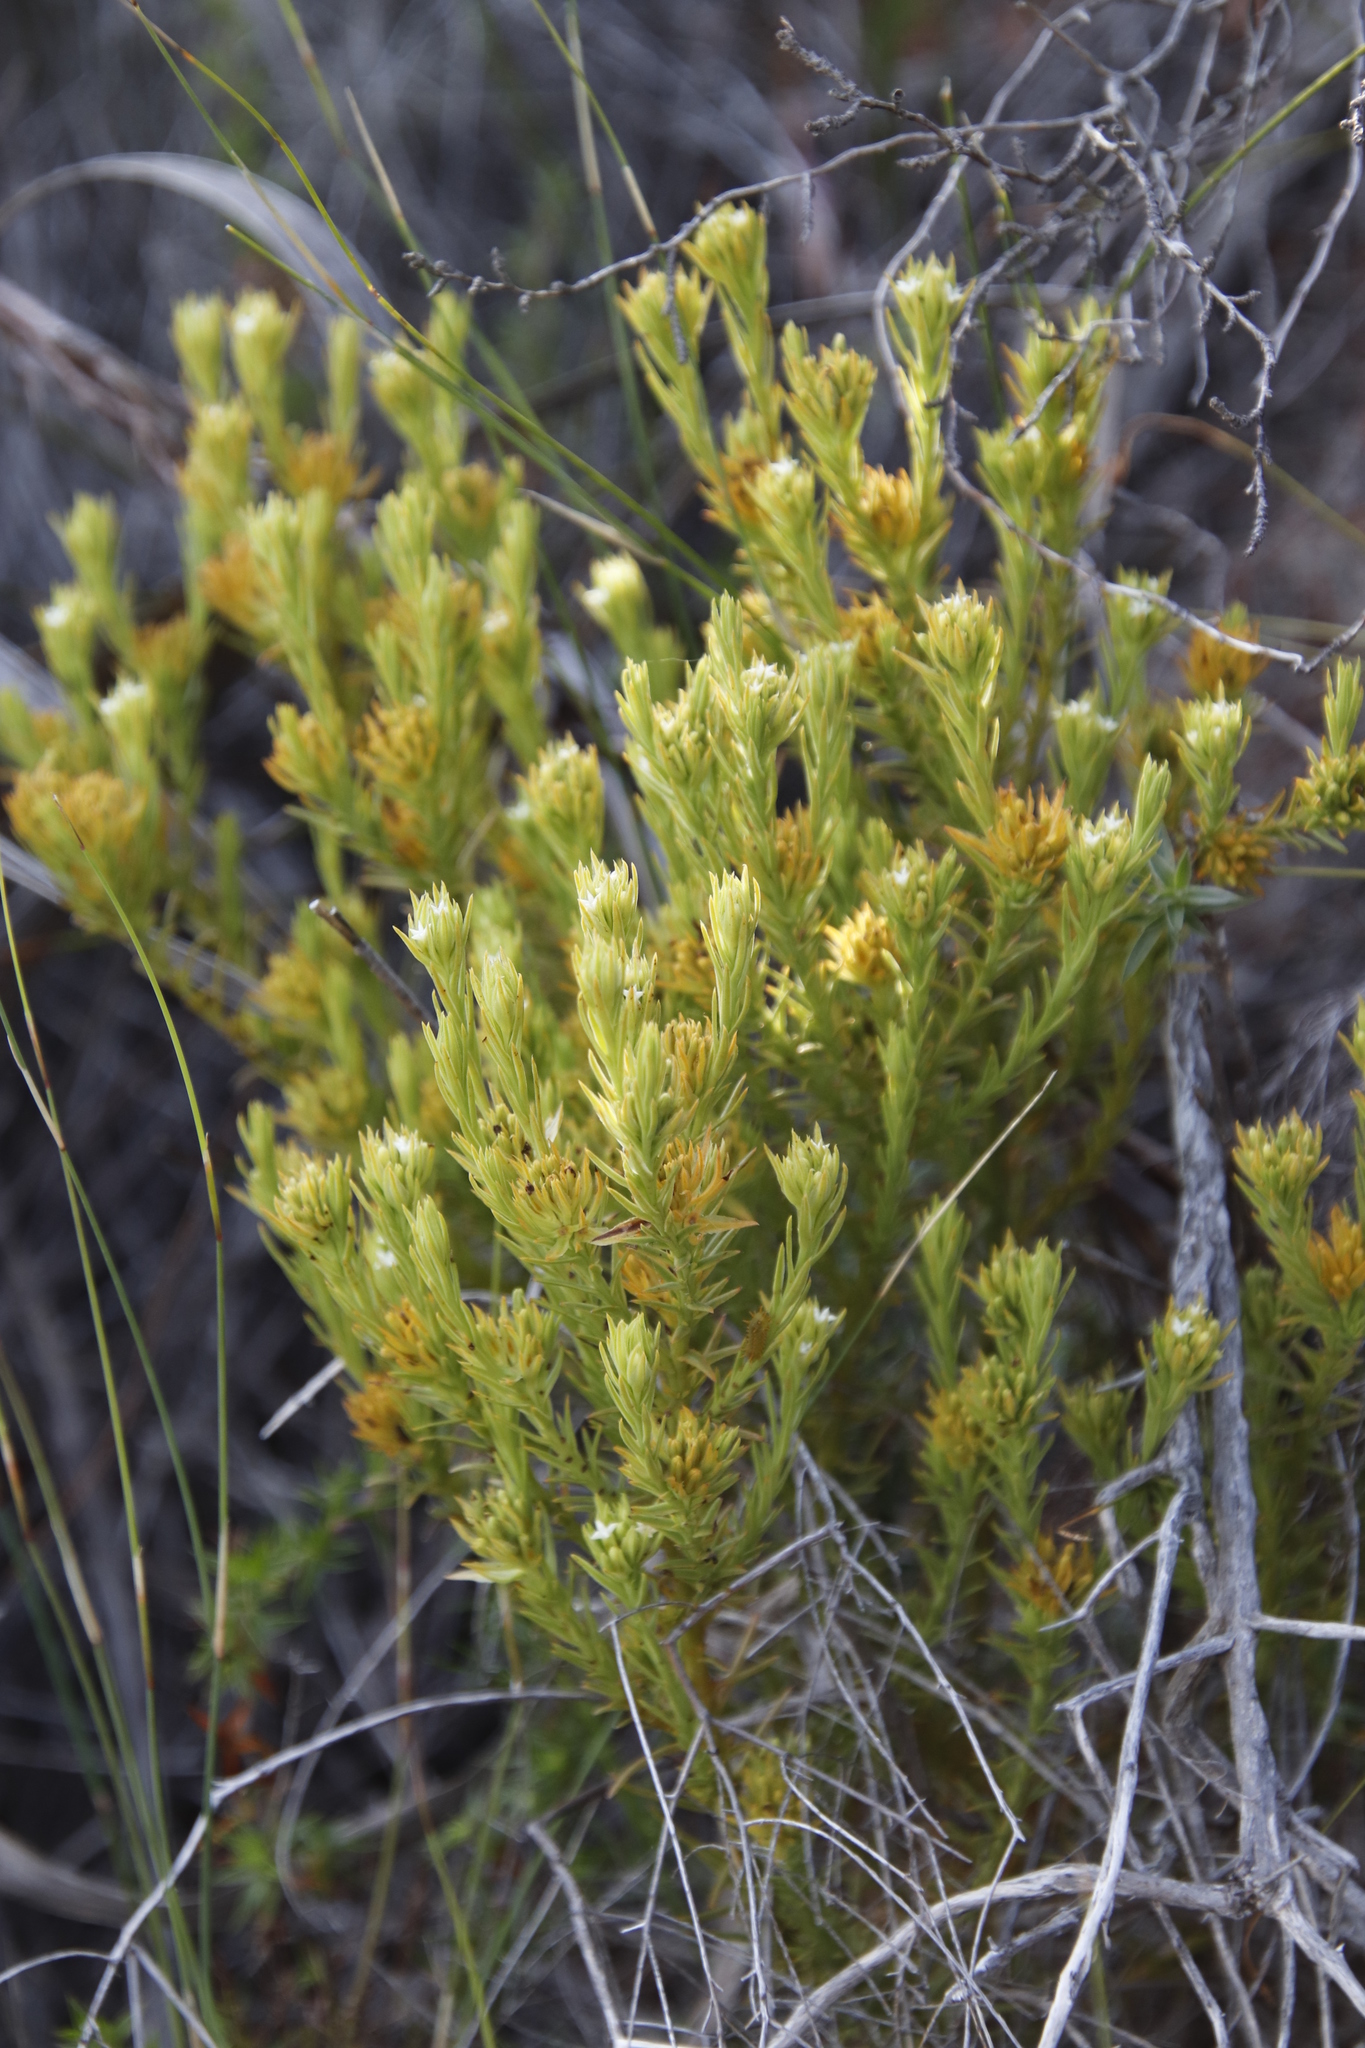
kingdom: Plantae
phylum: Tracheophyta
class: Magnoliopsida
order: Santalales
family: Thesiaceae
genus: Thesium
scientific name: Thesium carinatum
